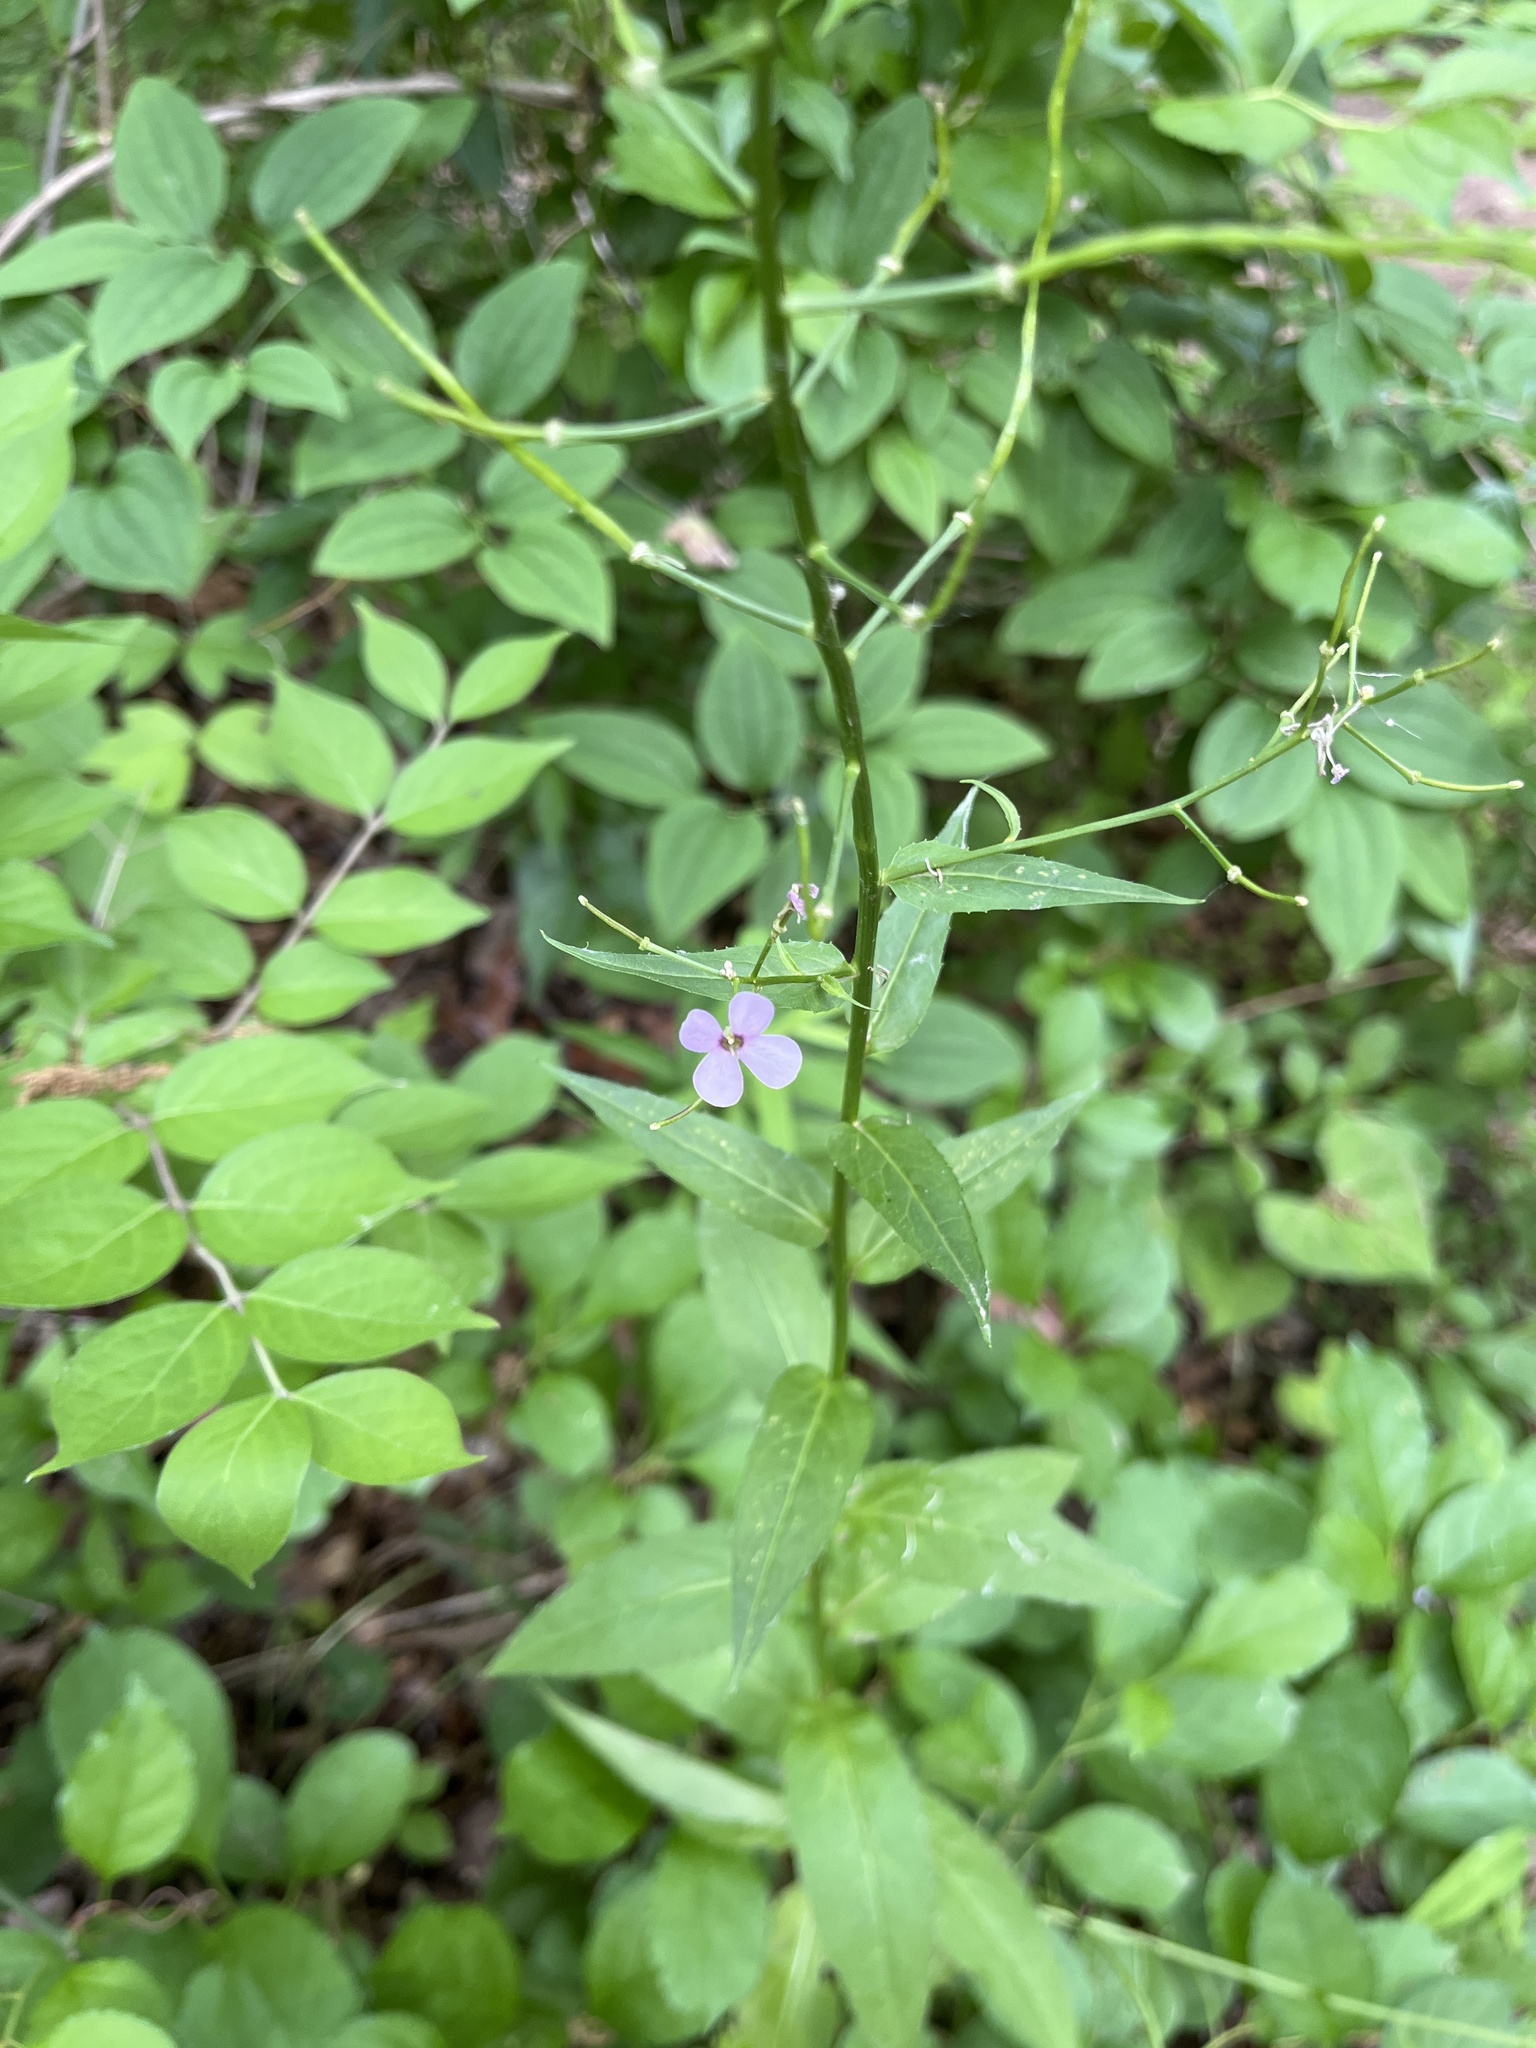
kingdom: Plantae
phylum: Tracheophyta
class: Magnoliopsida
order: Brassicales
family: Brassicaceae
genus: Hesperis
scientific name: Hesperis matronalis
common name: Dame's-violet
